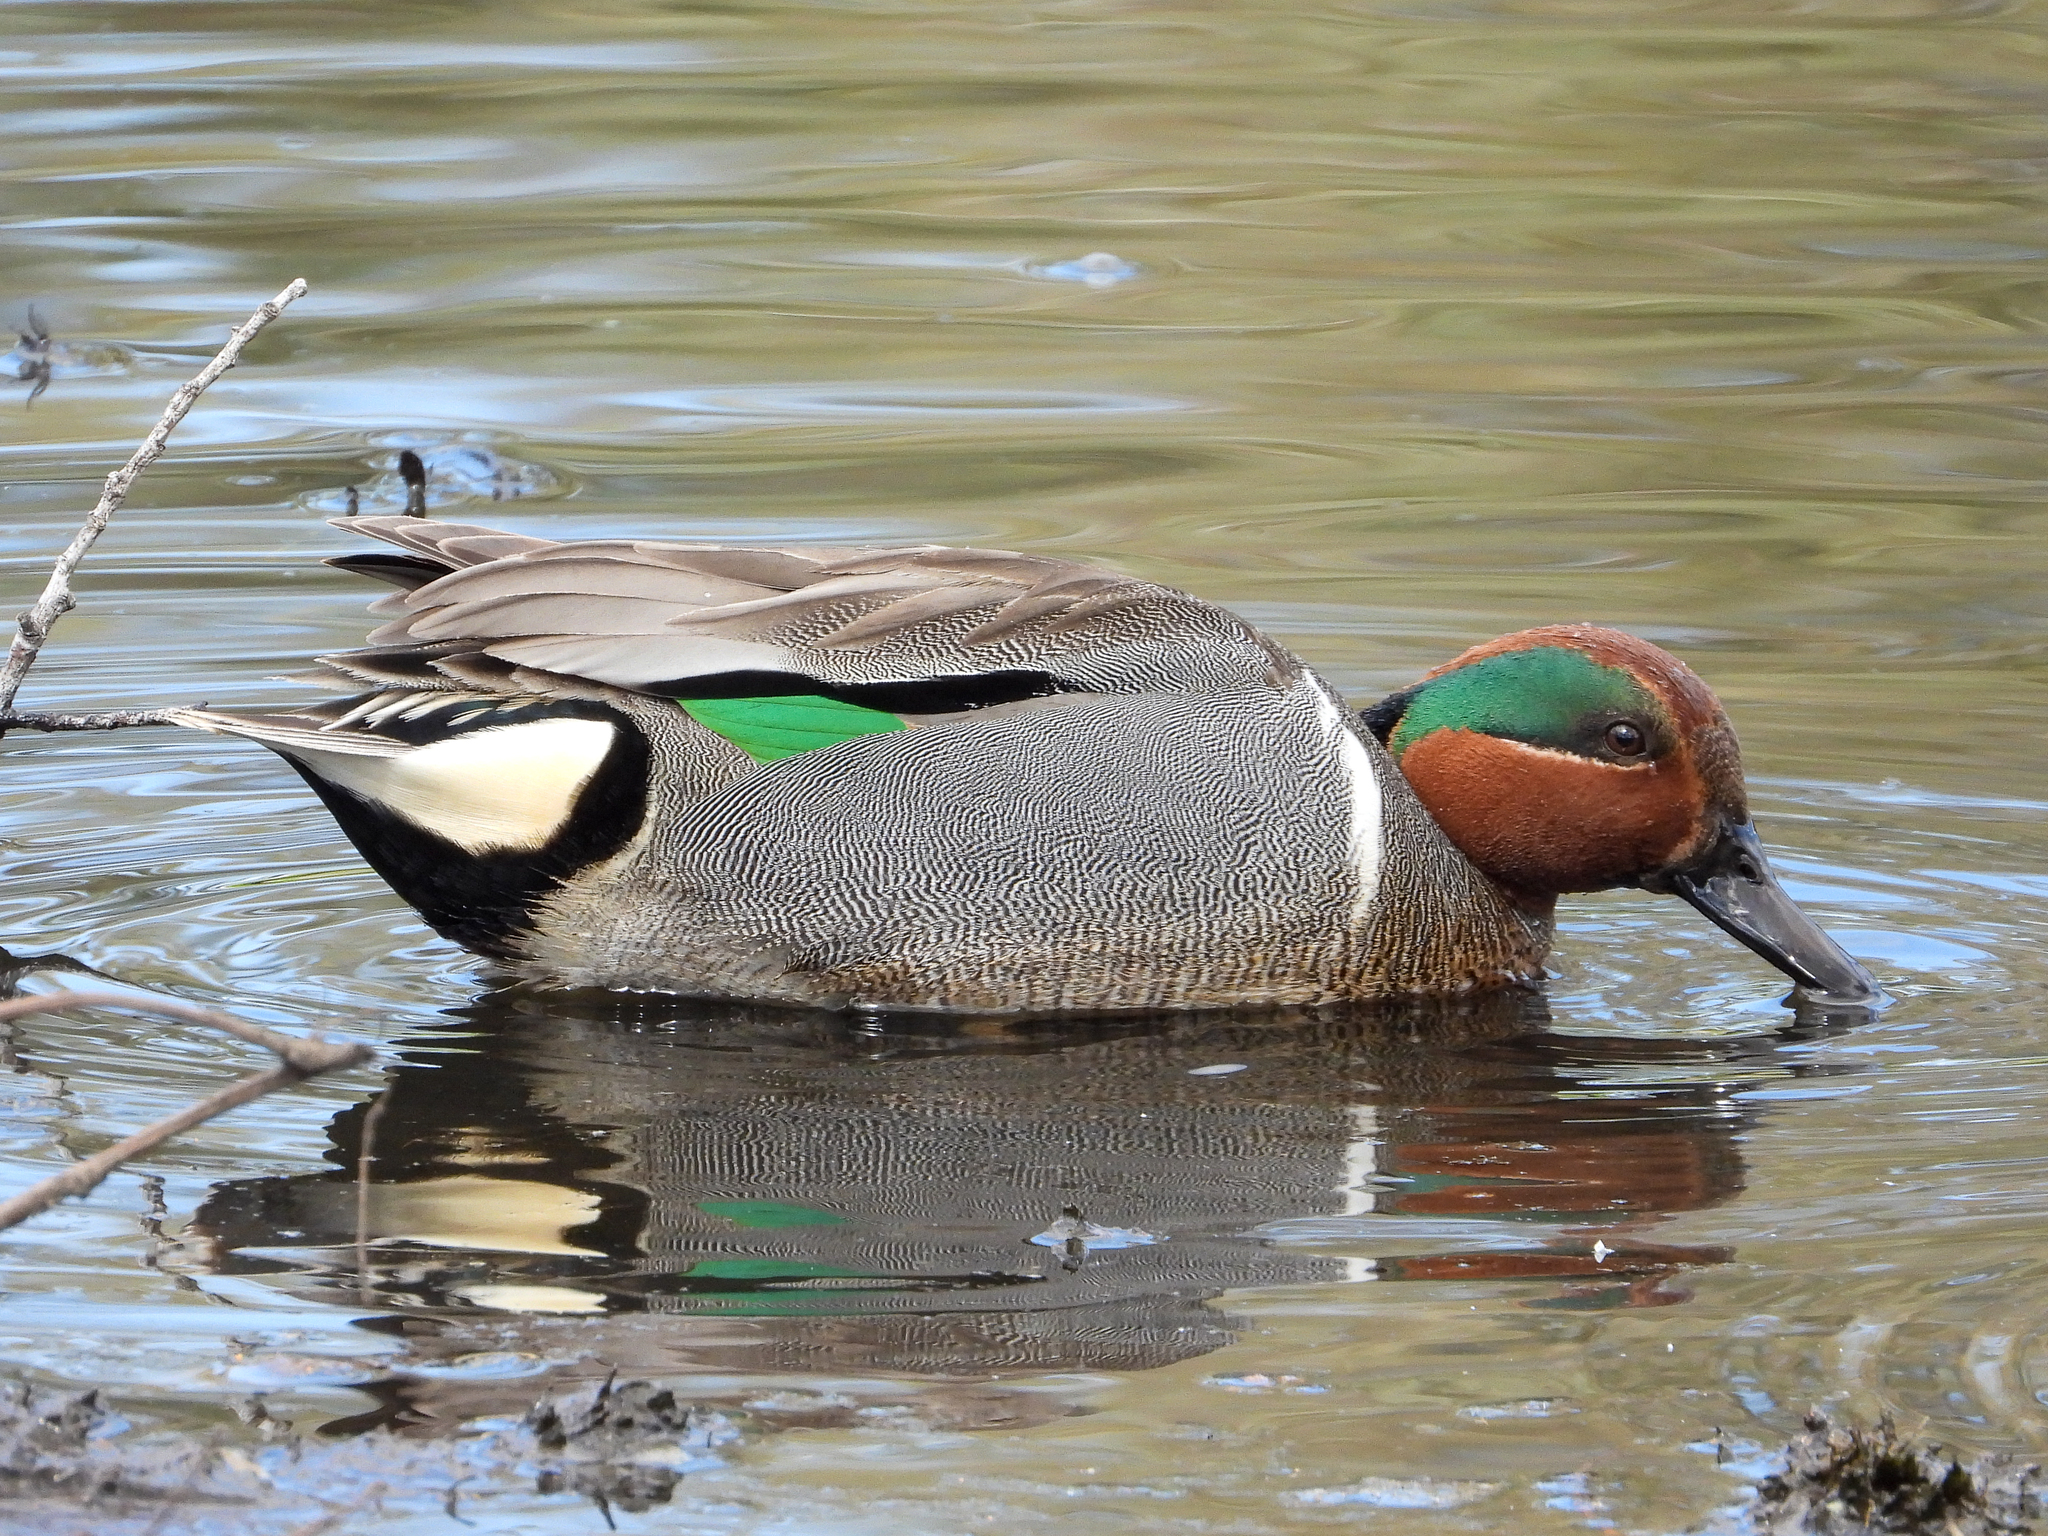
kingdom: Animalia
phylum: Chordata
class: Aves
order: Anseriformes
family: Anatidae
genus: Anas
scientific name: Anas crecca
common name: Eurasian teal
